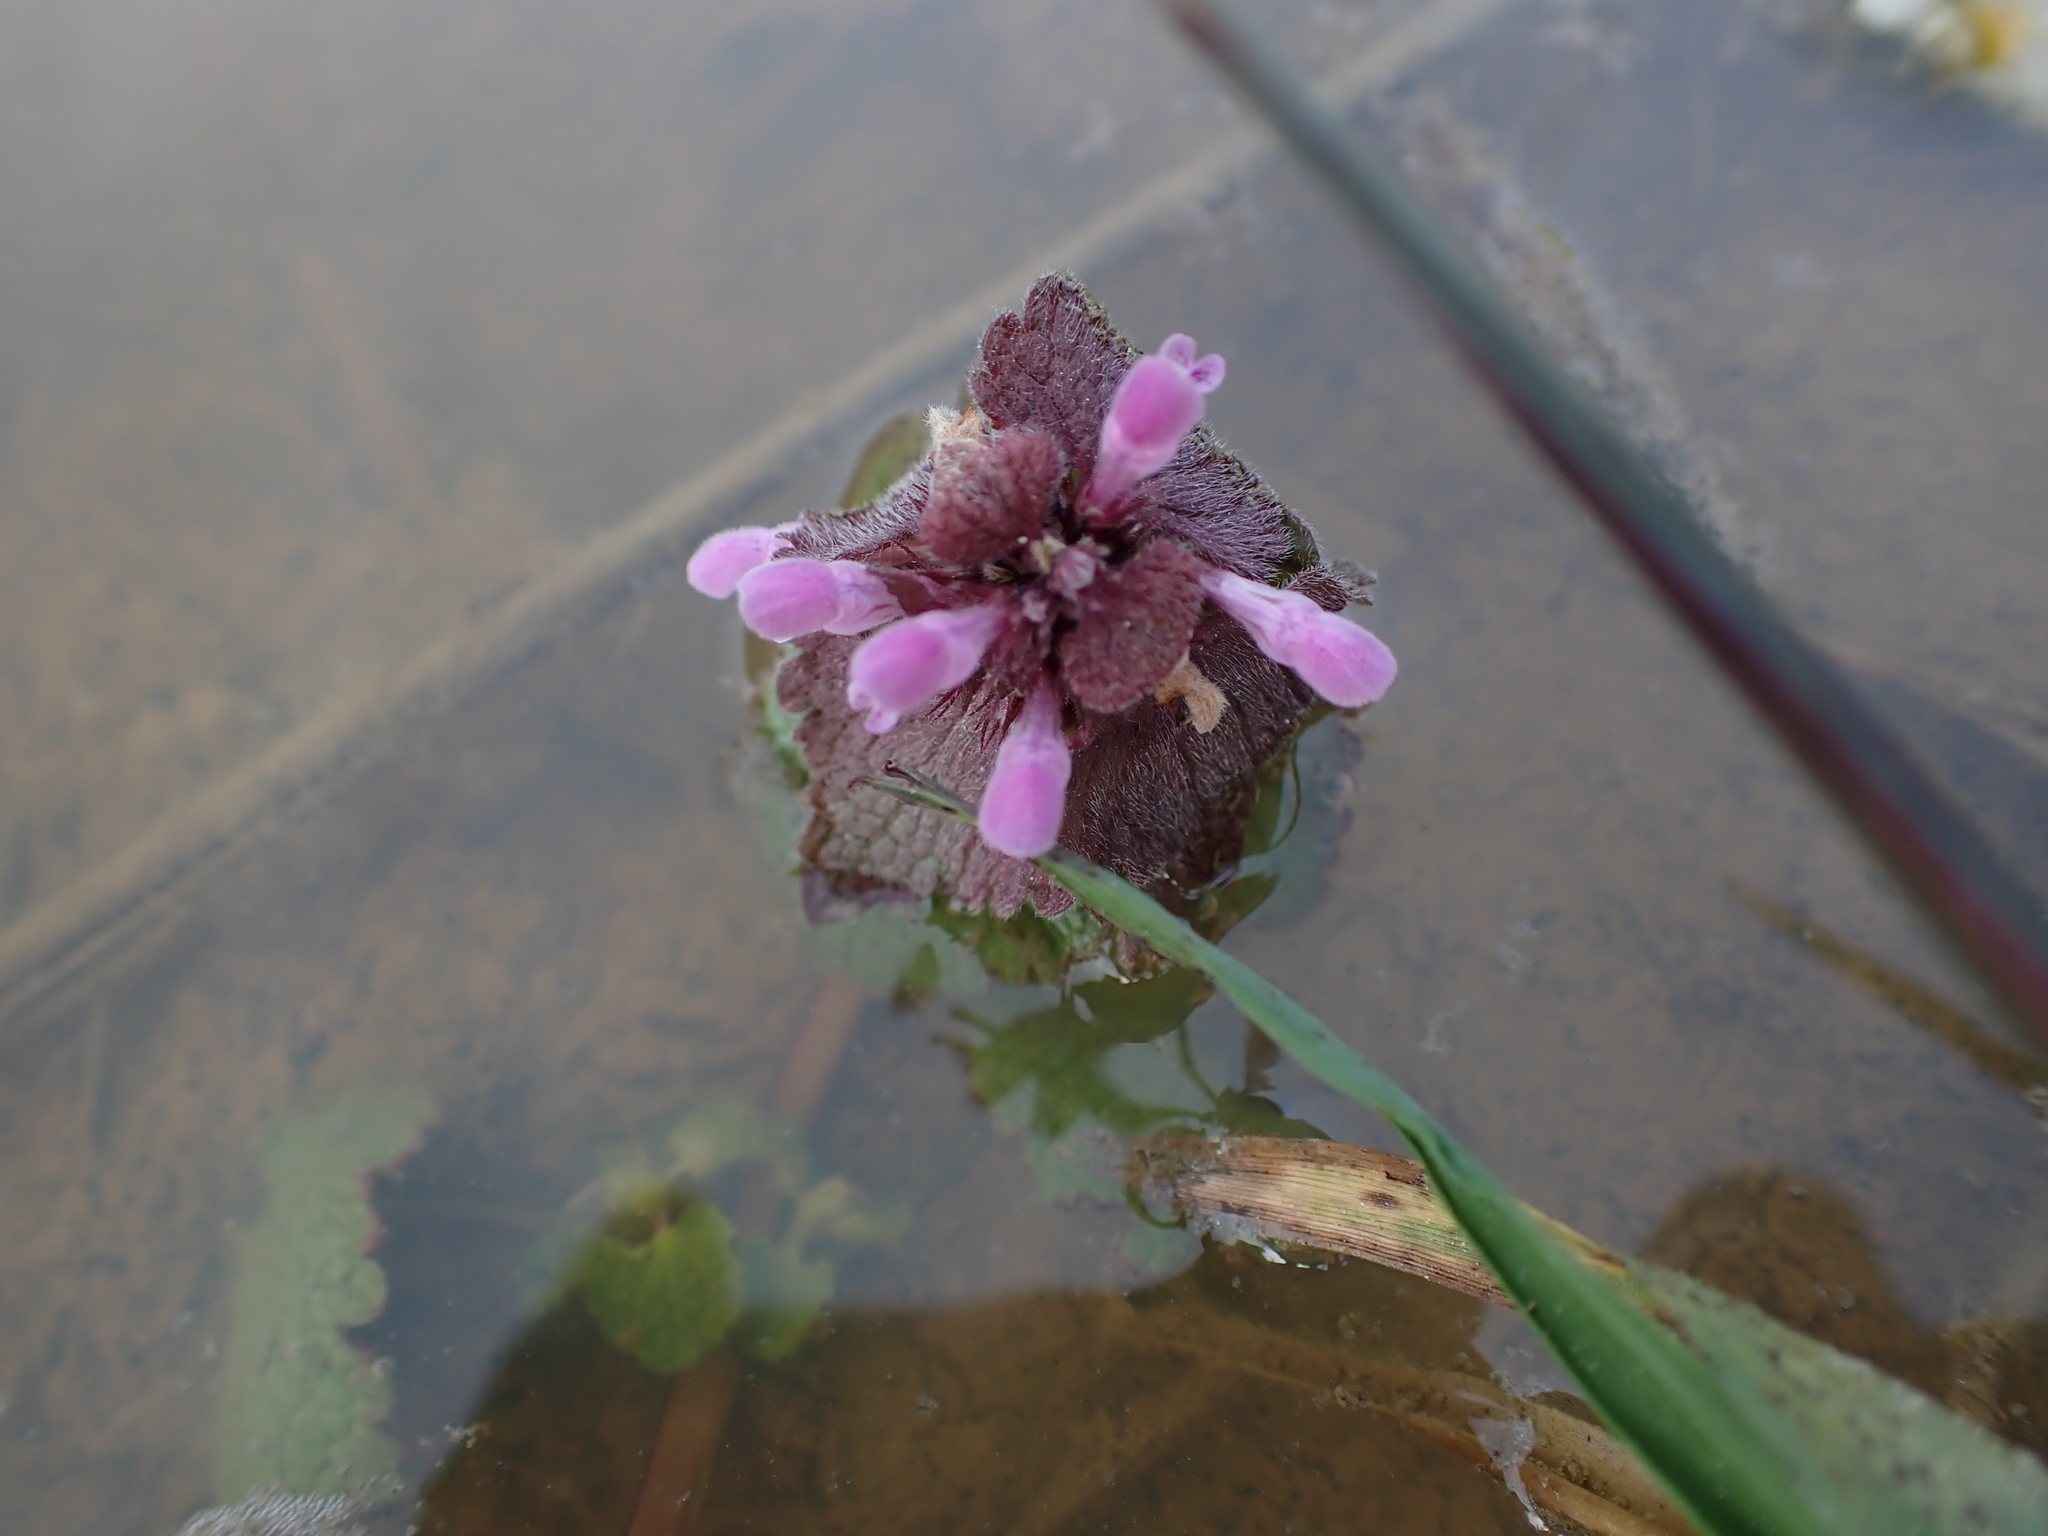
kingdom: Plantae
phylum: Tracheophyta
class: Magnoliopsida
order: Lamiales
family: Lamiaceae
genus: Lamium
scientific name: Lamium purpureum
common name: Red dead-nettle
